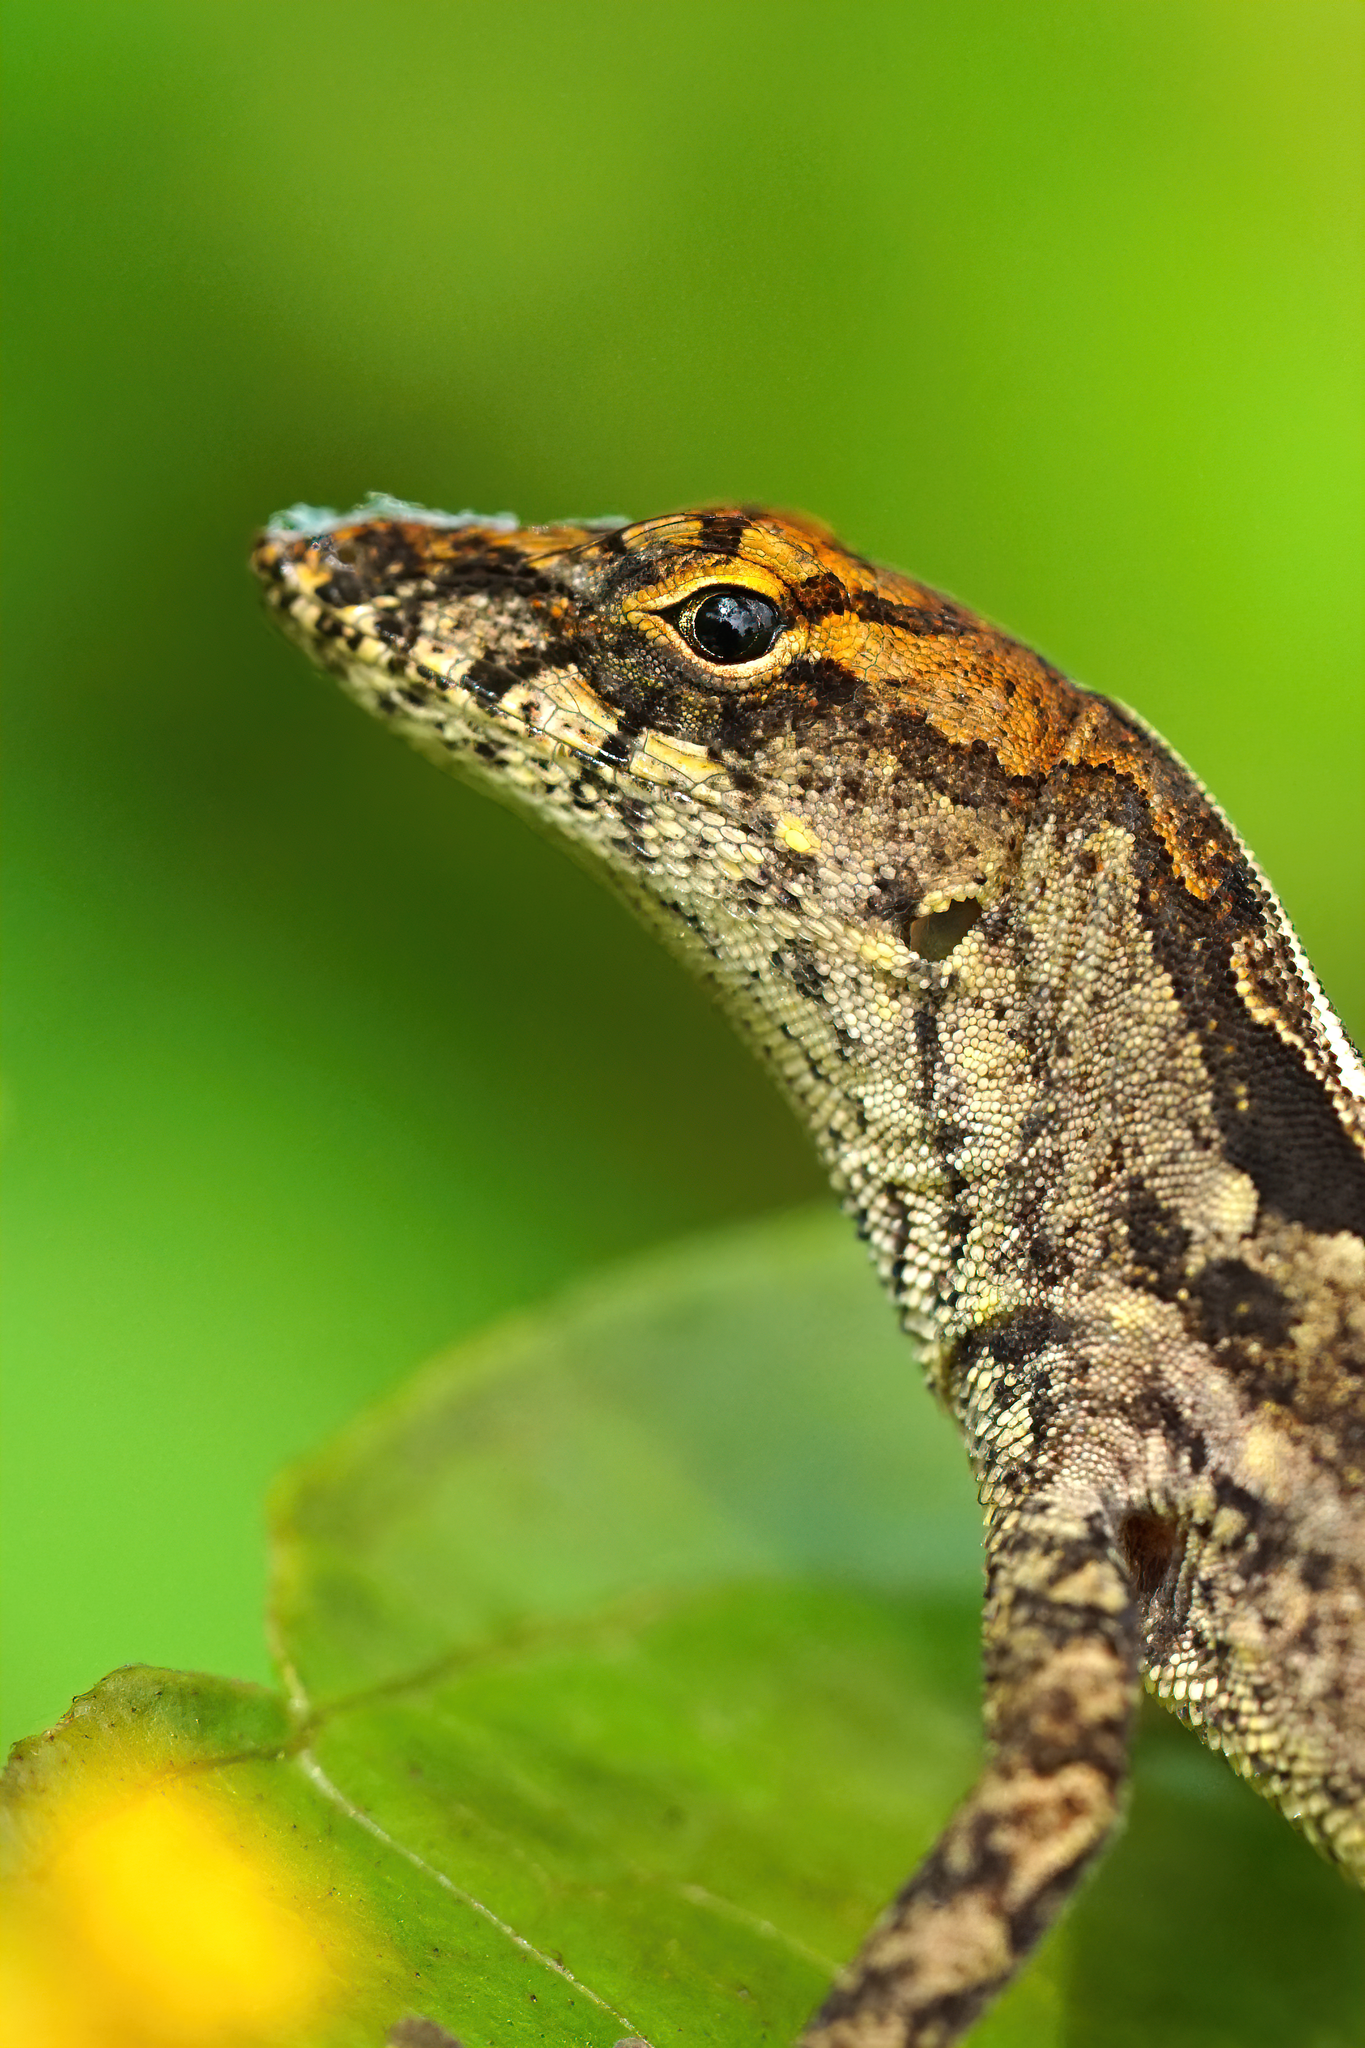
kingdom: Animalia
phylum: Chordata
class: Squamata
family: Dactyloidae
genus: Anolis
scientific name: Anolis sagrei
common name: Brown anole
